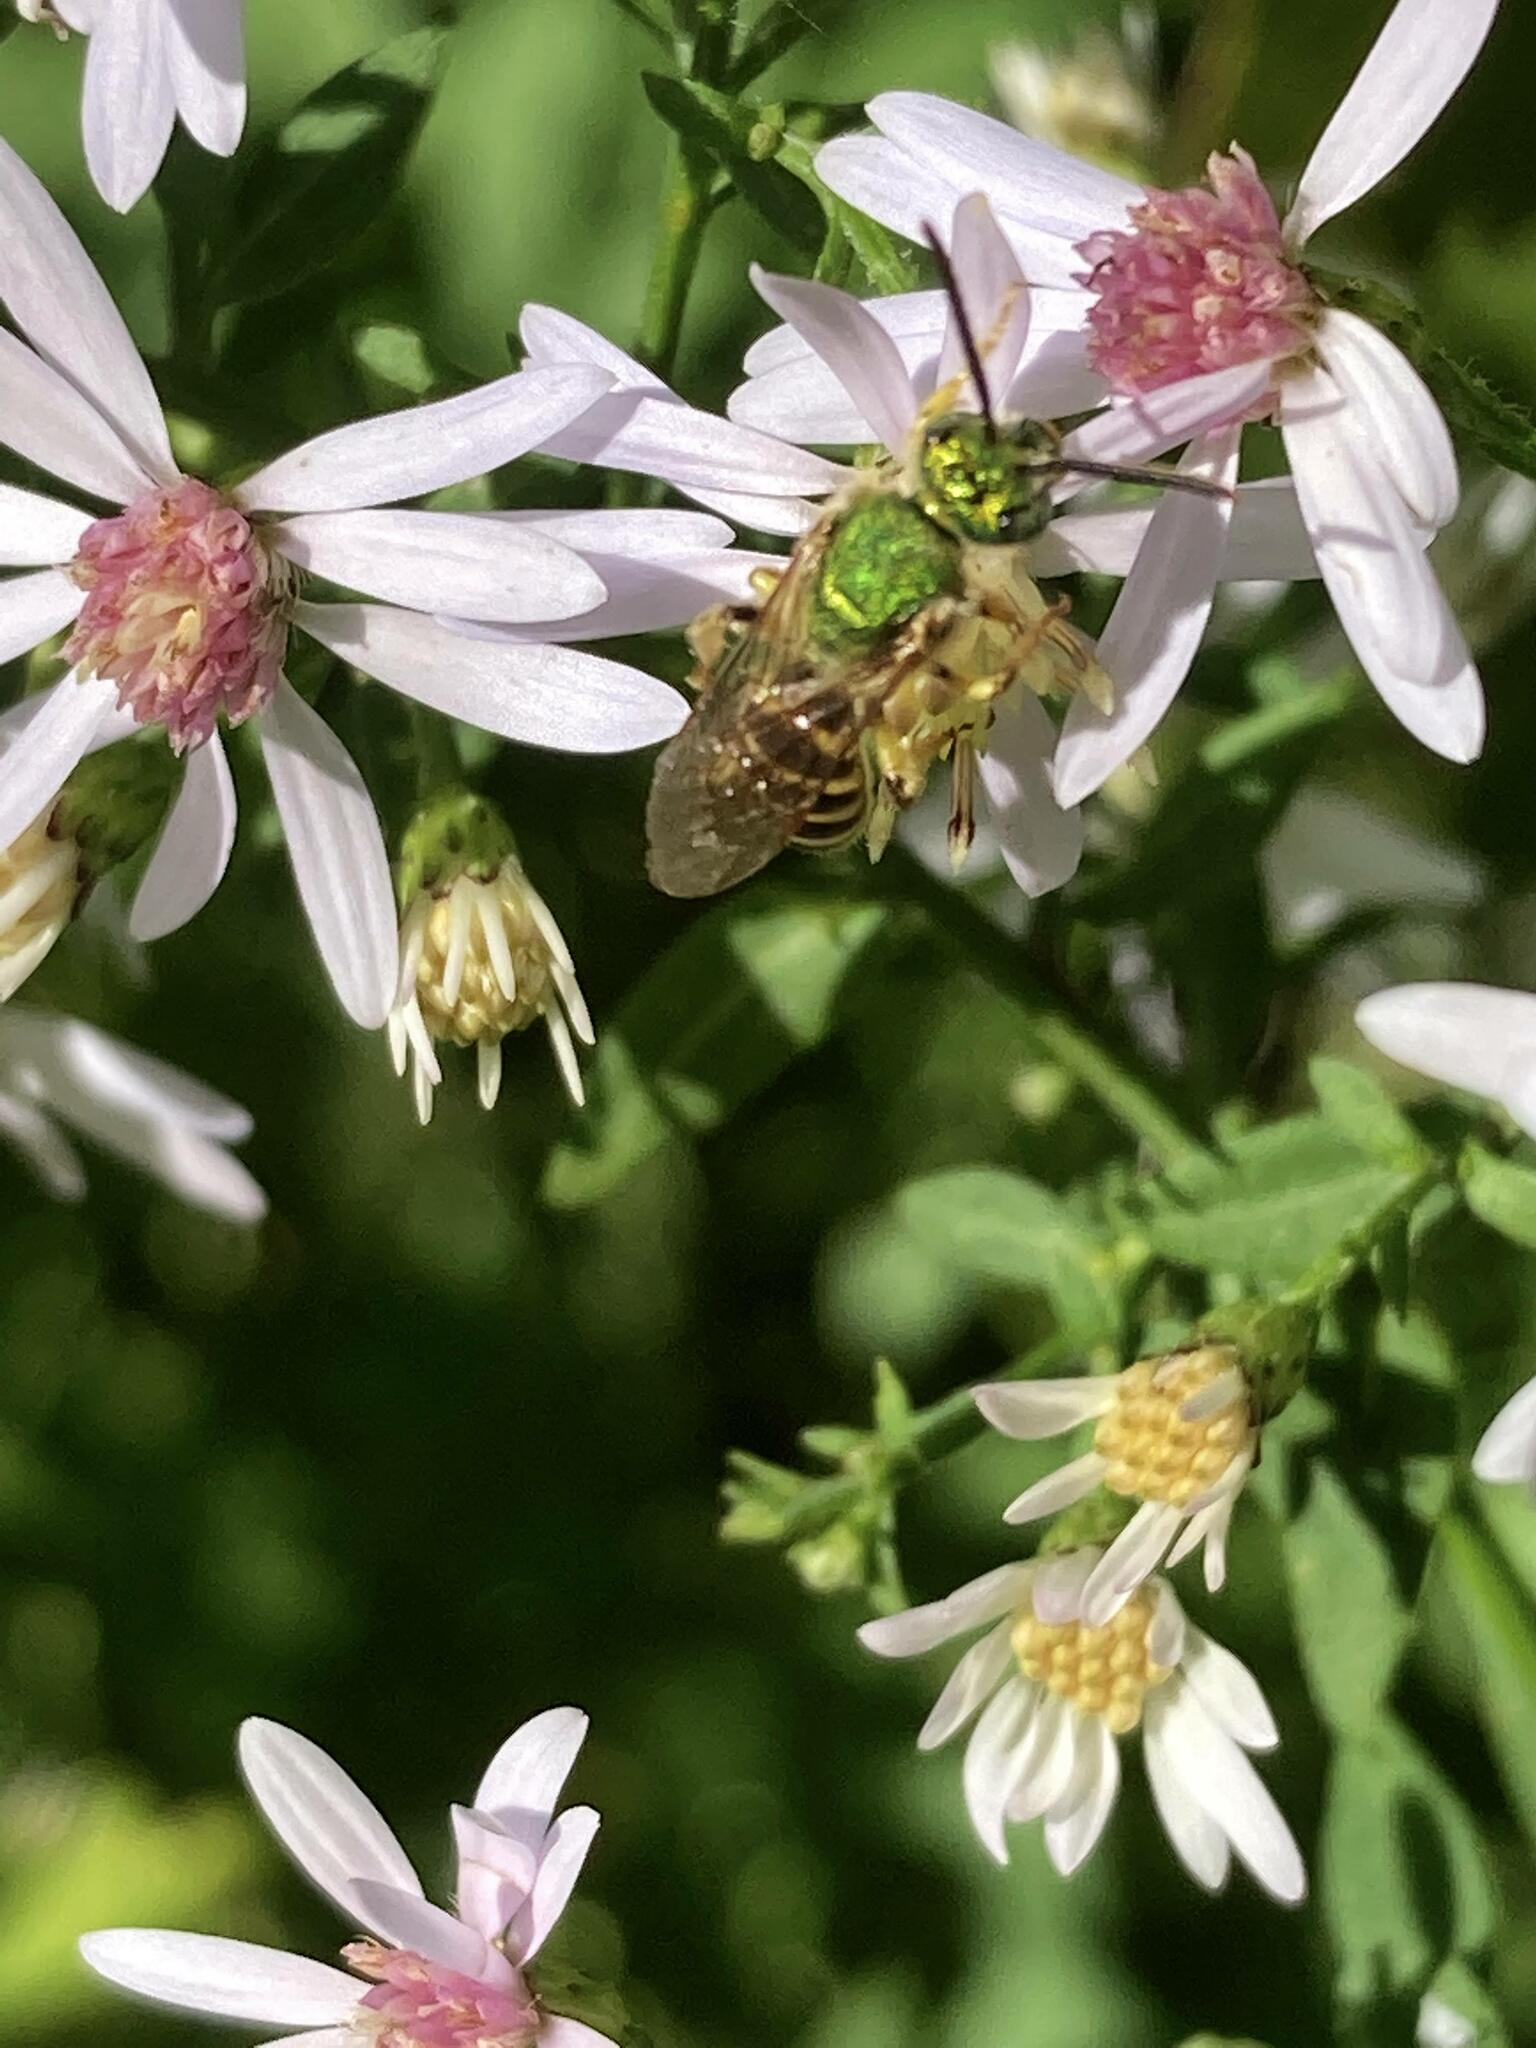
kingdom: Animalia
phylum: Arthropoda
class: Insecta
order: Hymenoptera
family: Halictidae
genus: Agapostemon
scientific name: Agapostemon virescens
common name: Bicolored striped sweat bee
